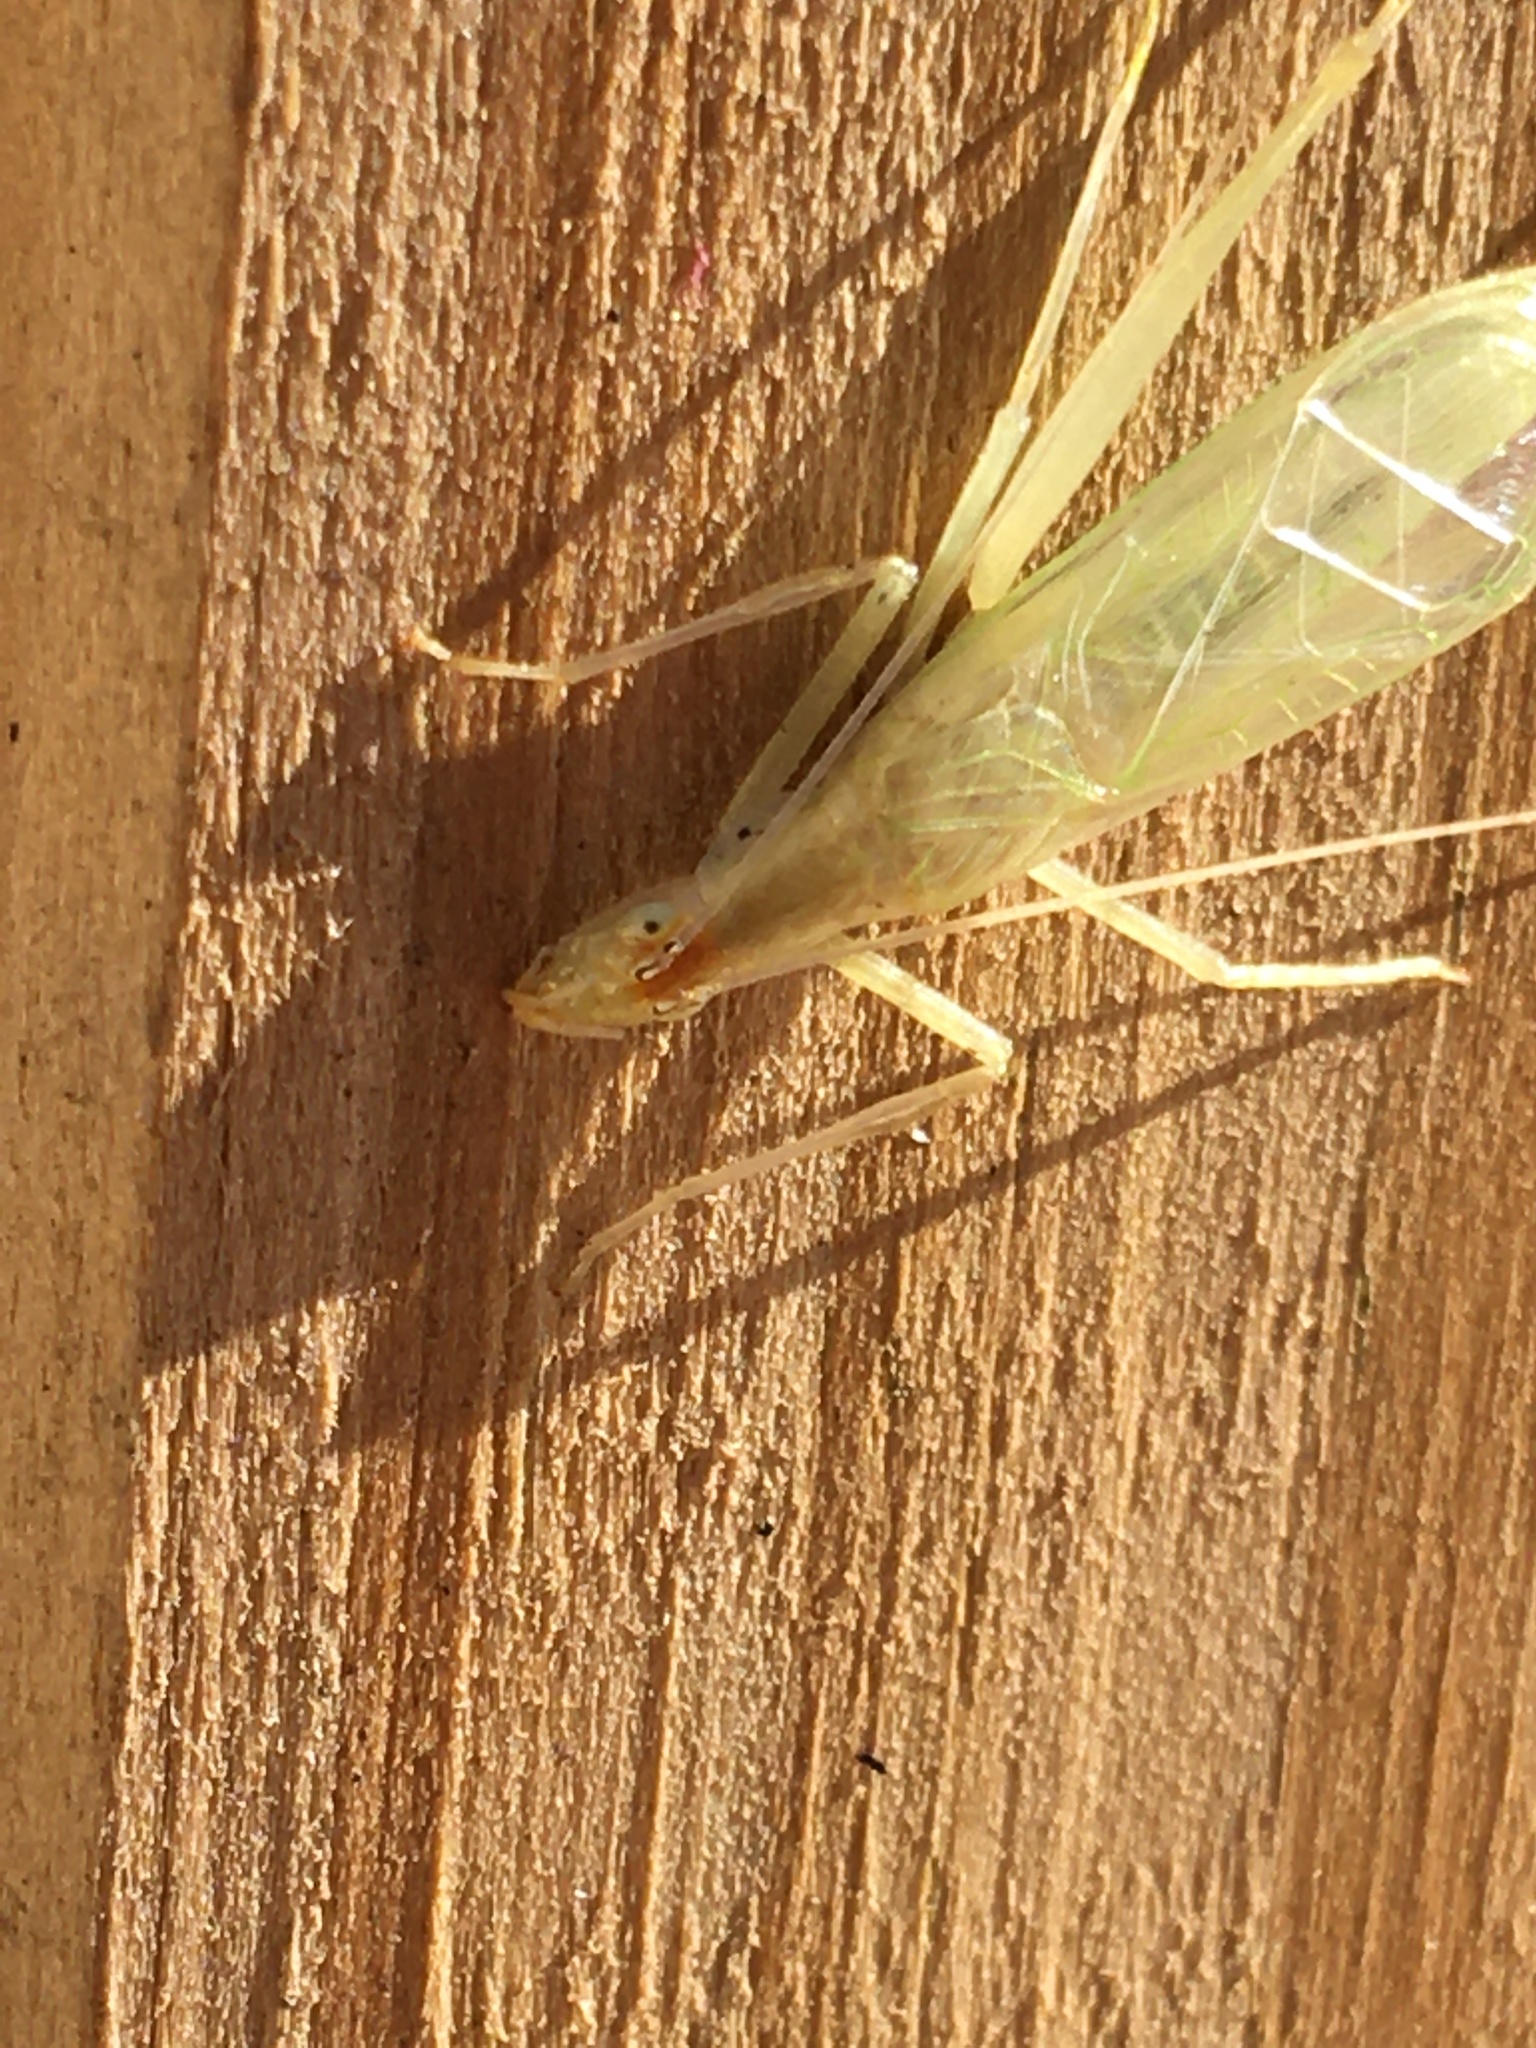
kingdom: Animalia
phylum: Arthropoda
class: Insecta
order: Orthoptera
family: Gryllidae
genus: Oecanthus
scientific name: Oecanthus niveus
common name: Narrow-winged tree cricket
